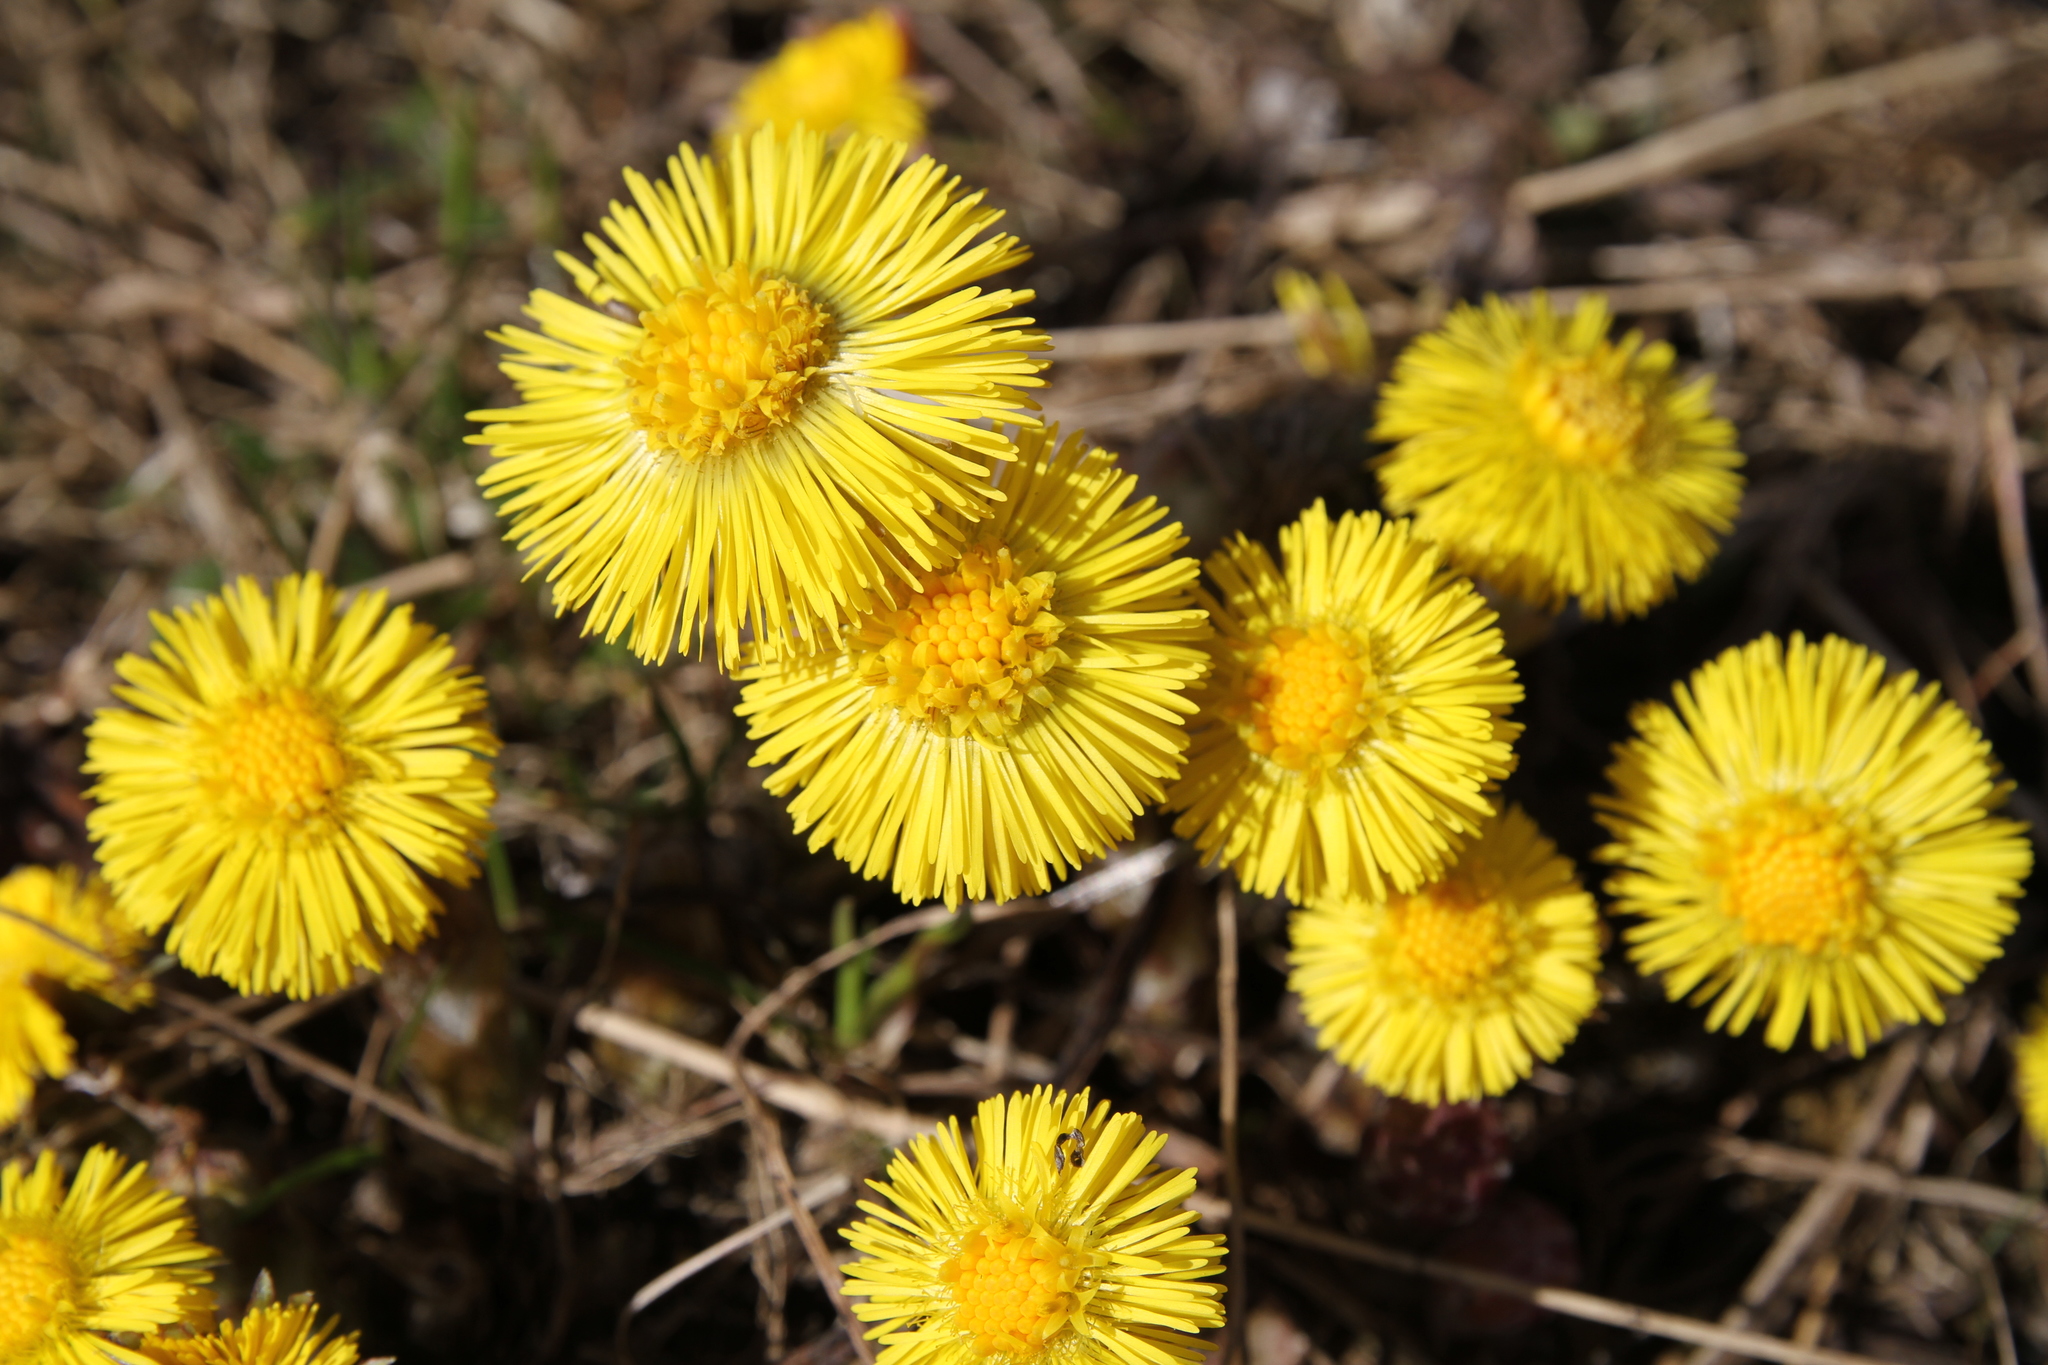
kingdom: Plantae
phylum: Tracheophyta
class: Magnoliopsida
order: Asterales
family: Asteraceae
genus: Tussilago
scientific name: Tussilago farfara
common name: Coltsfoot
